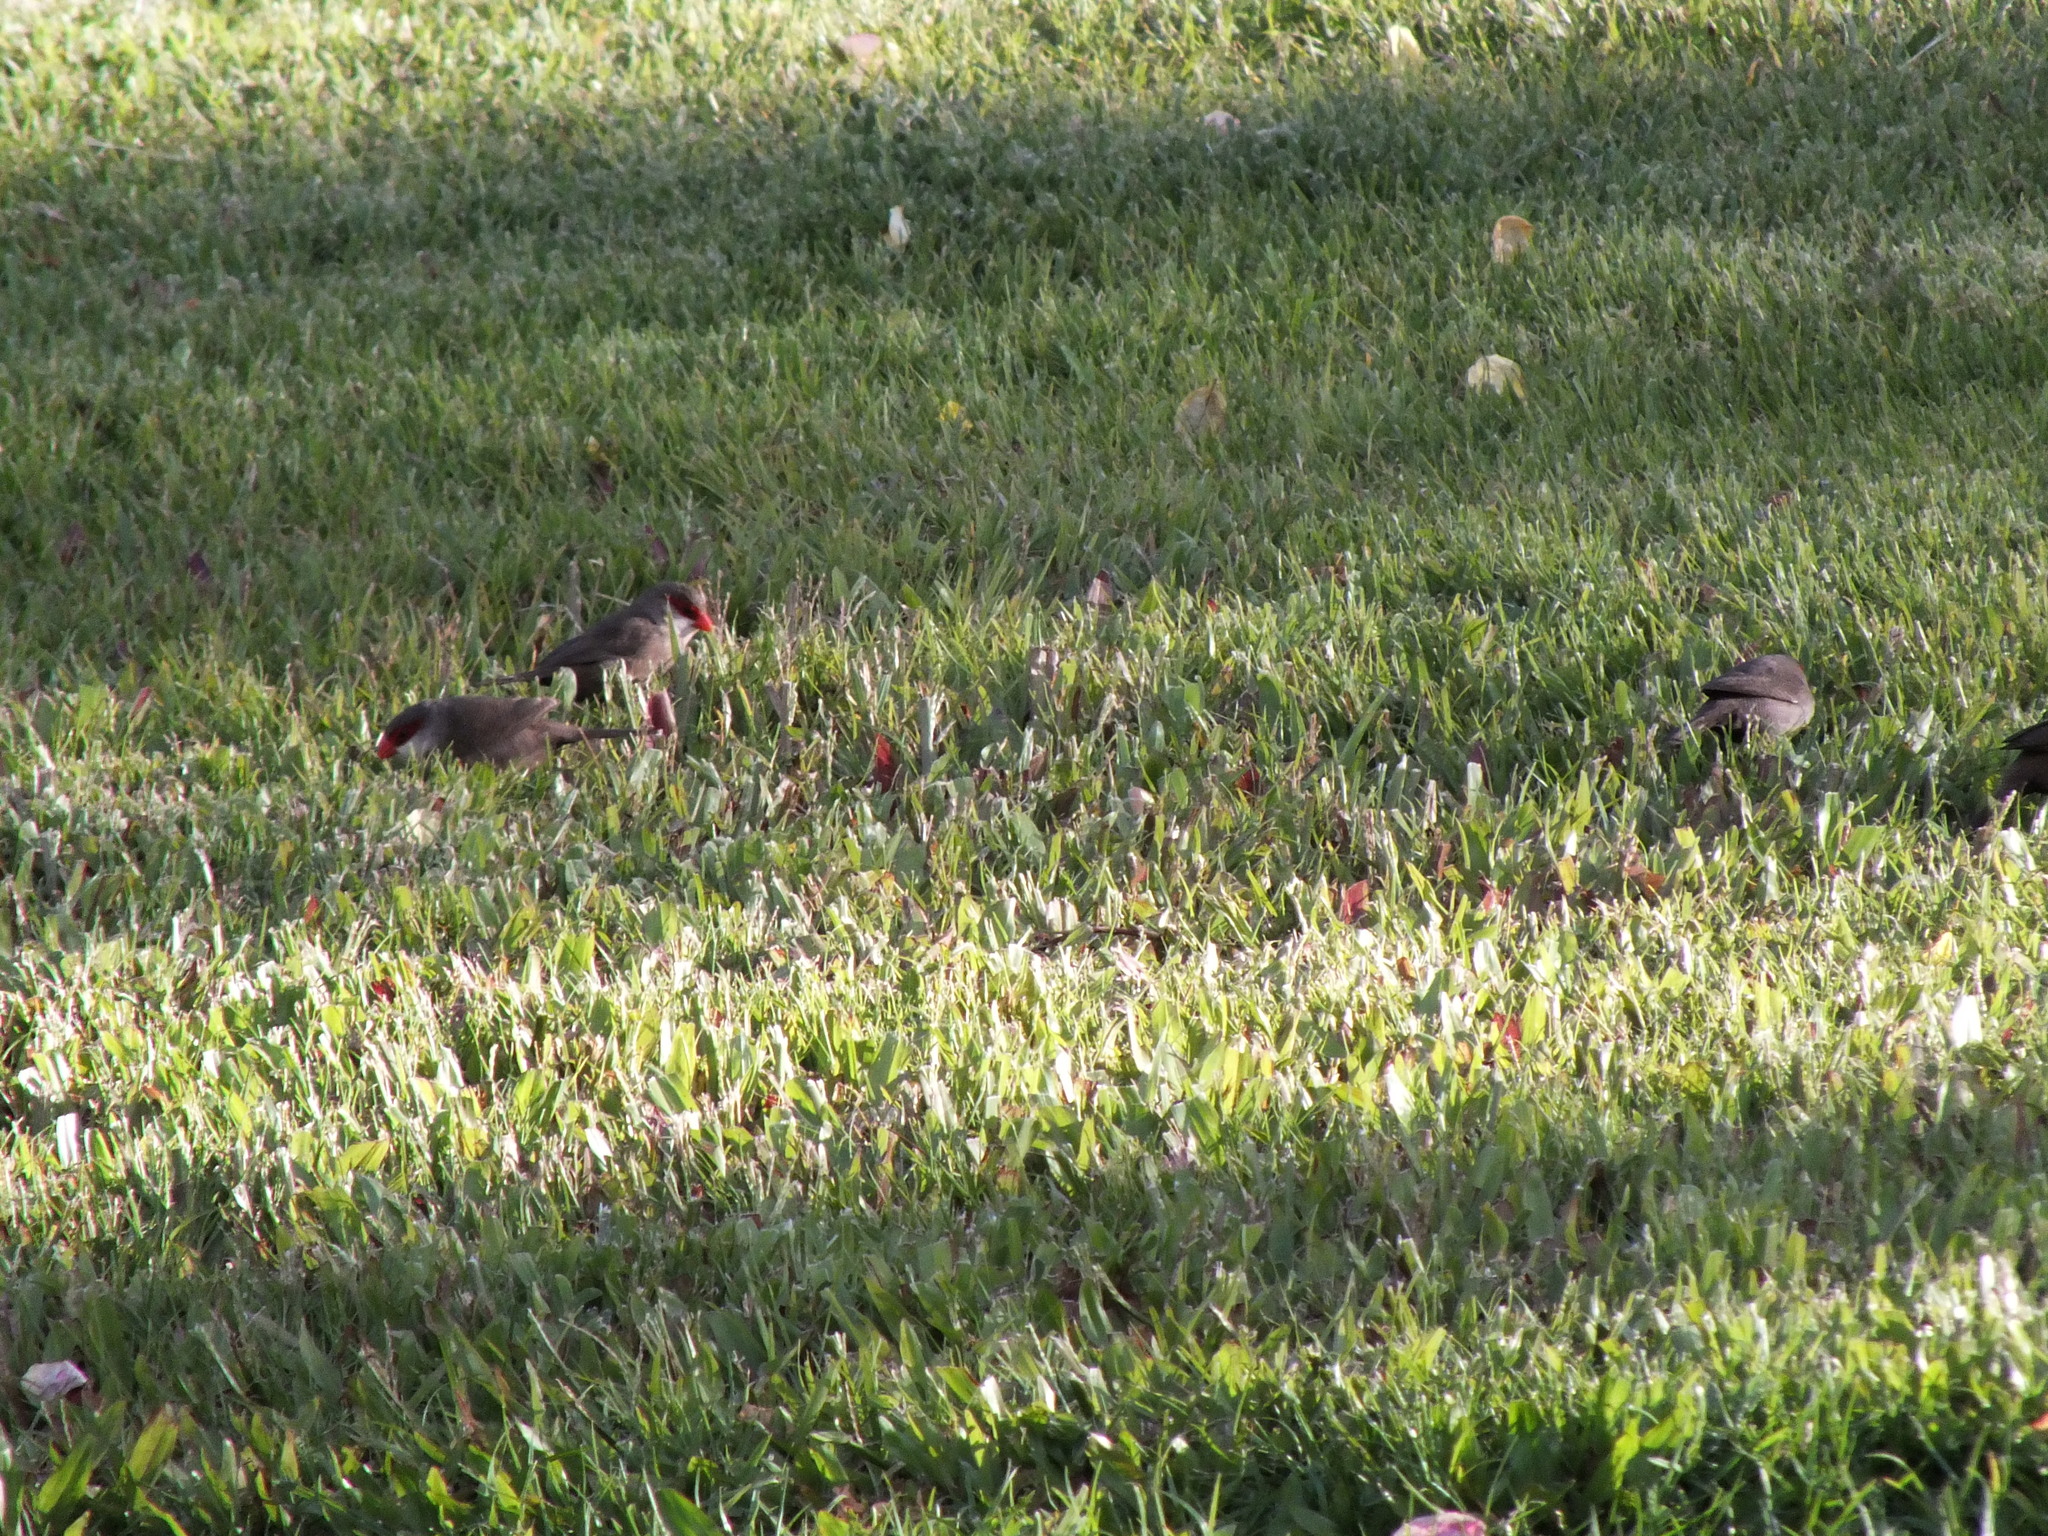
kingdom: Animalia
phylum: Chordata
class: Aves
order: Passeriformes
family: Estrildidae
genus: Estrilda
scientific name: Estrilda astrild
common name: Common waxbill
